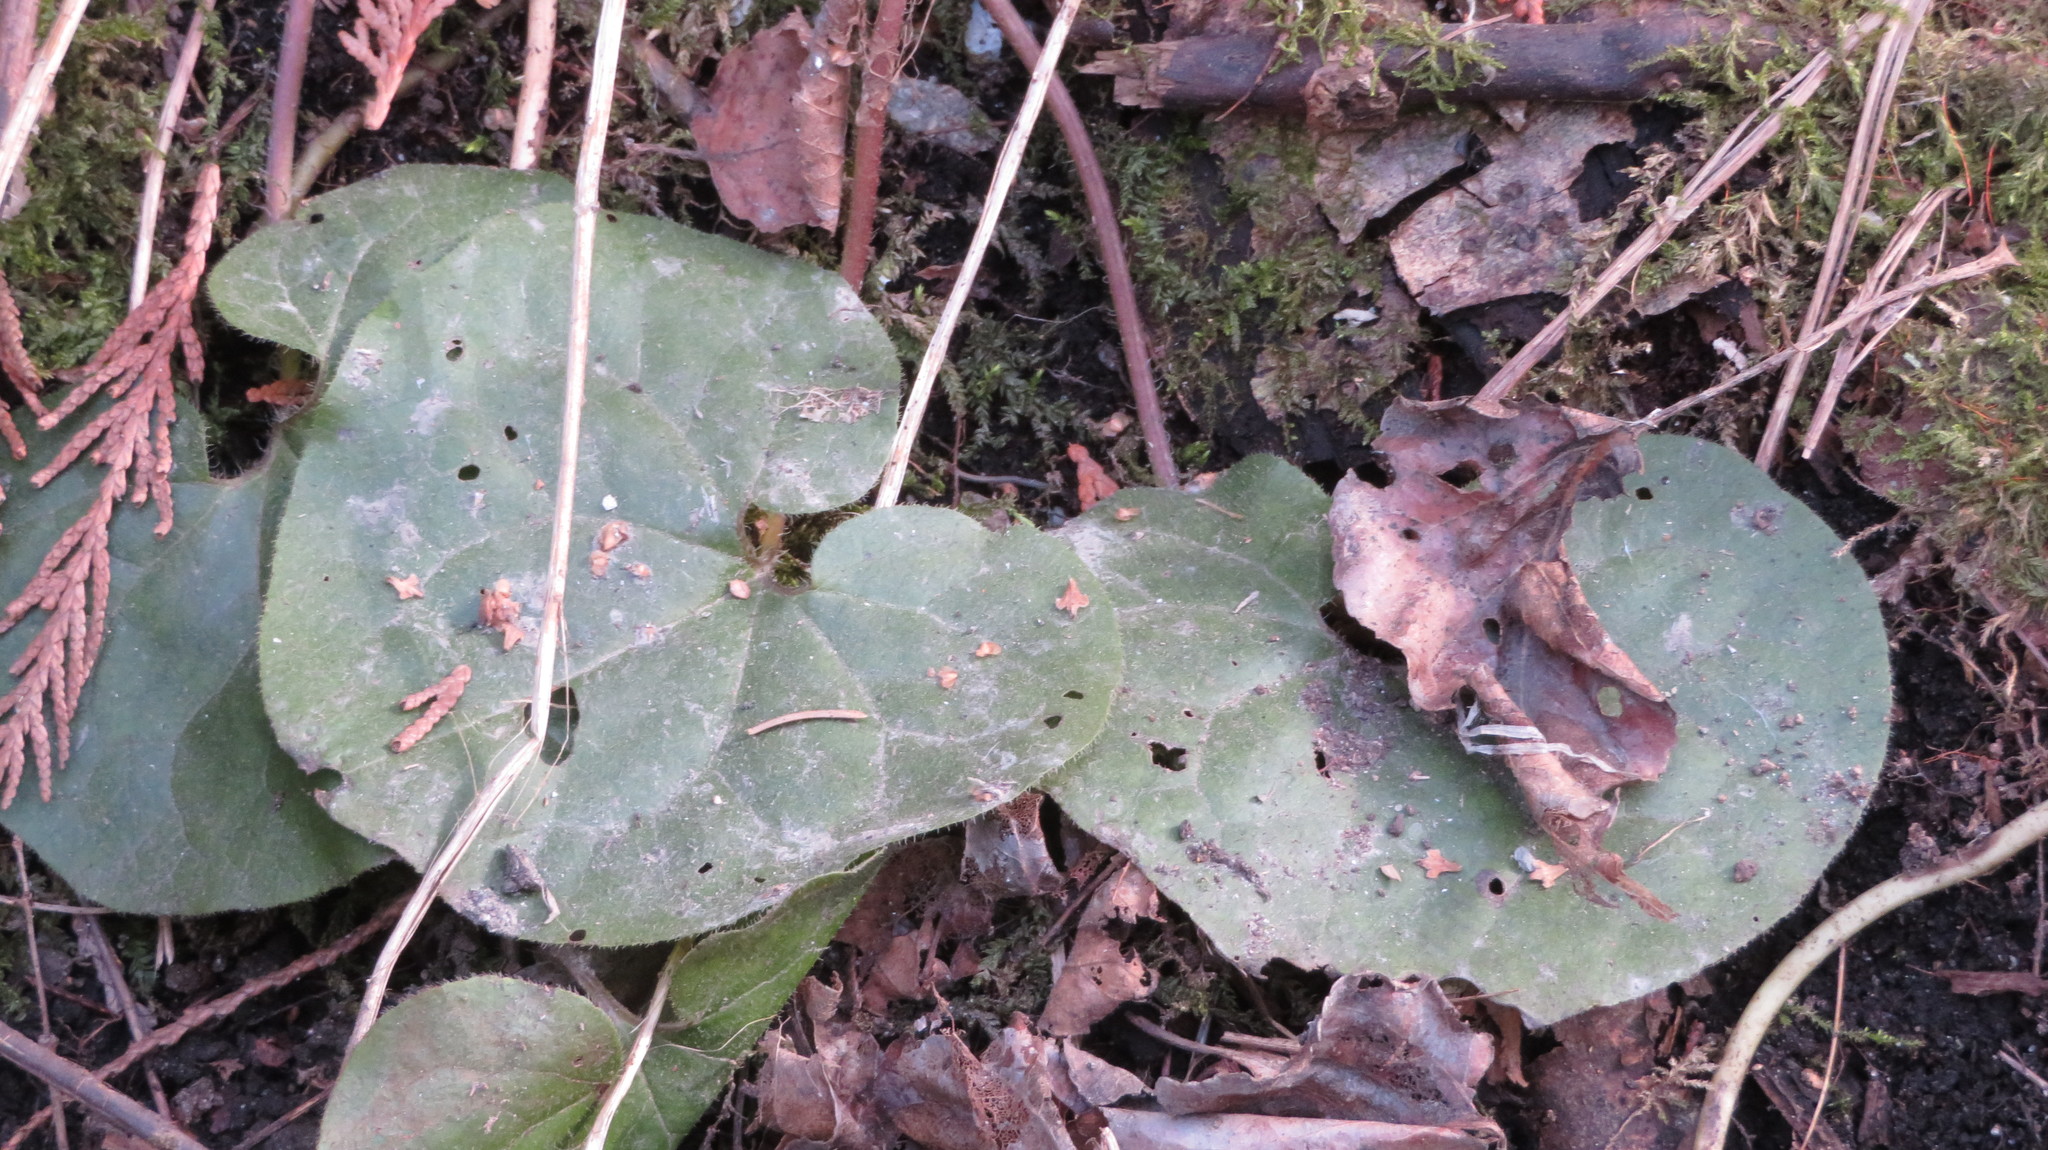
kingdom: Plantae
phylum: Tracheophyta
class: Magnoliopsida
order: Piperales
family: Aristolochiaceae
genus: Asarum
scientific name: Asarum caudatum
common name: Wild ginger
